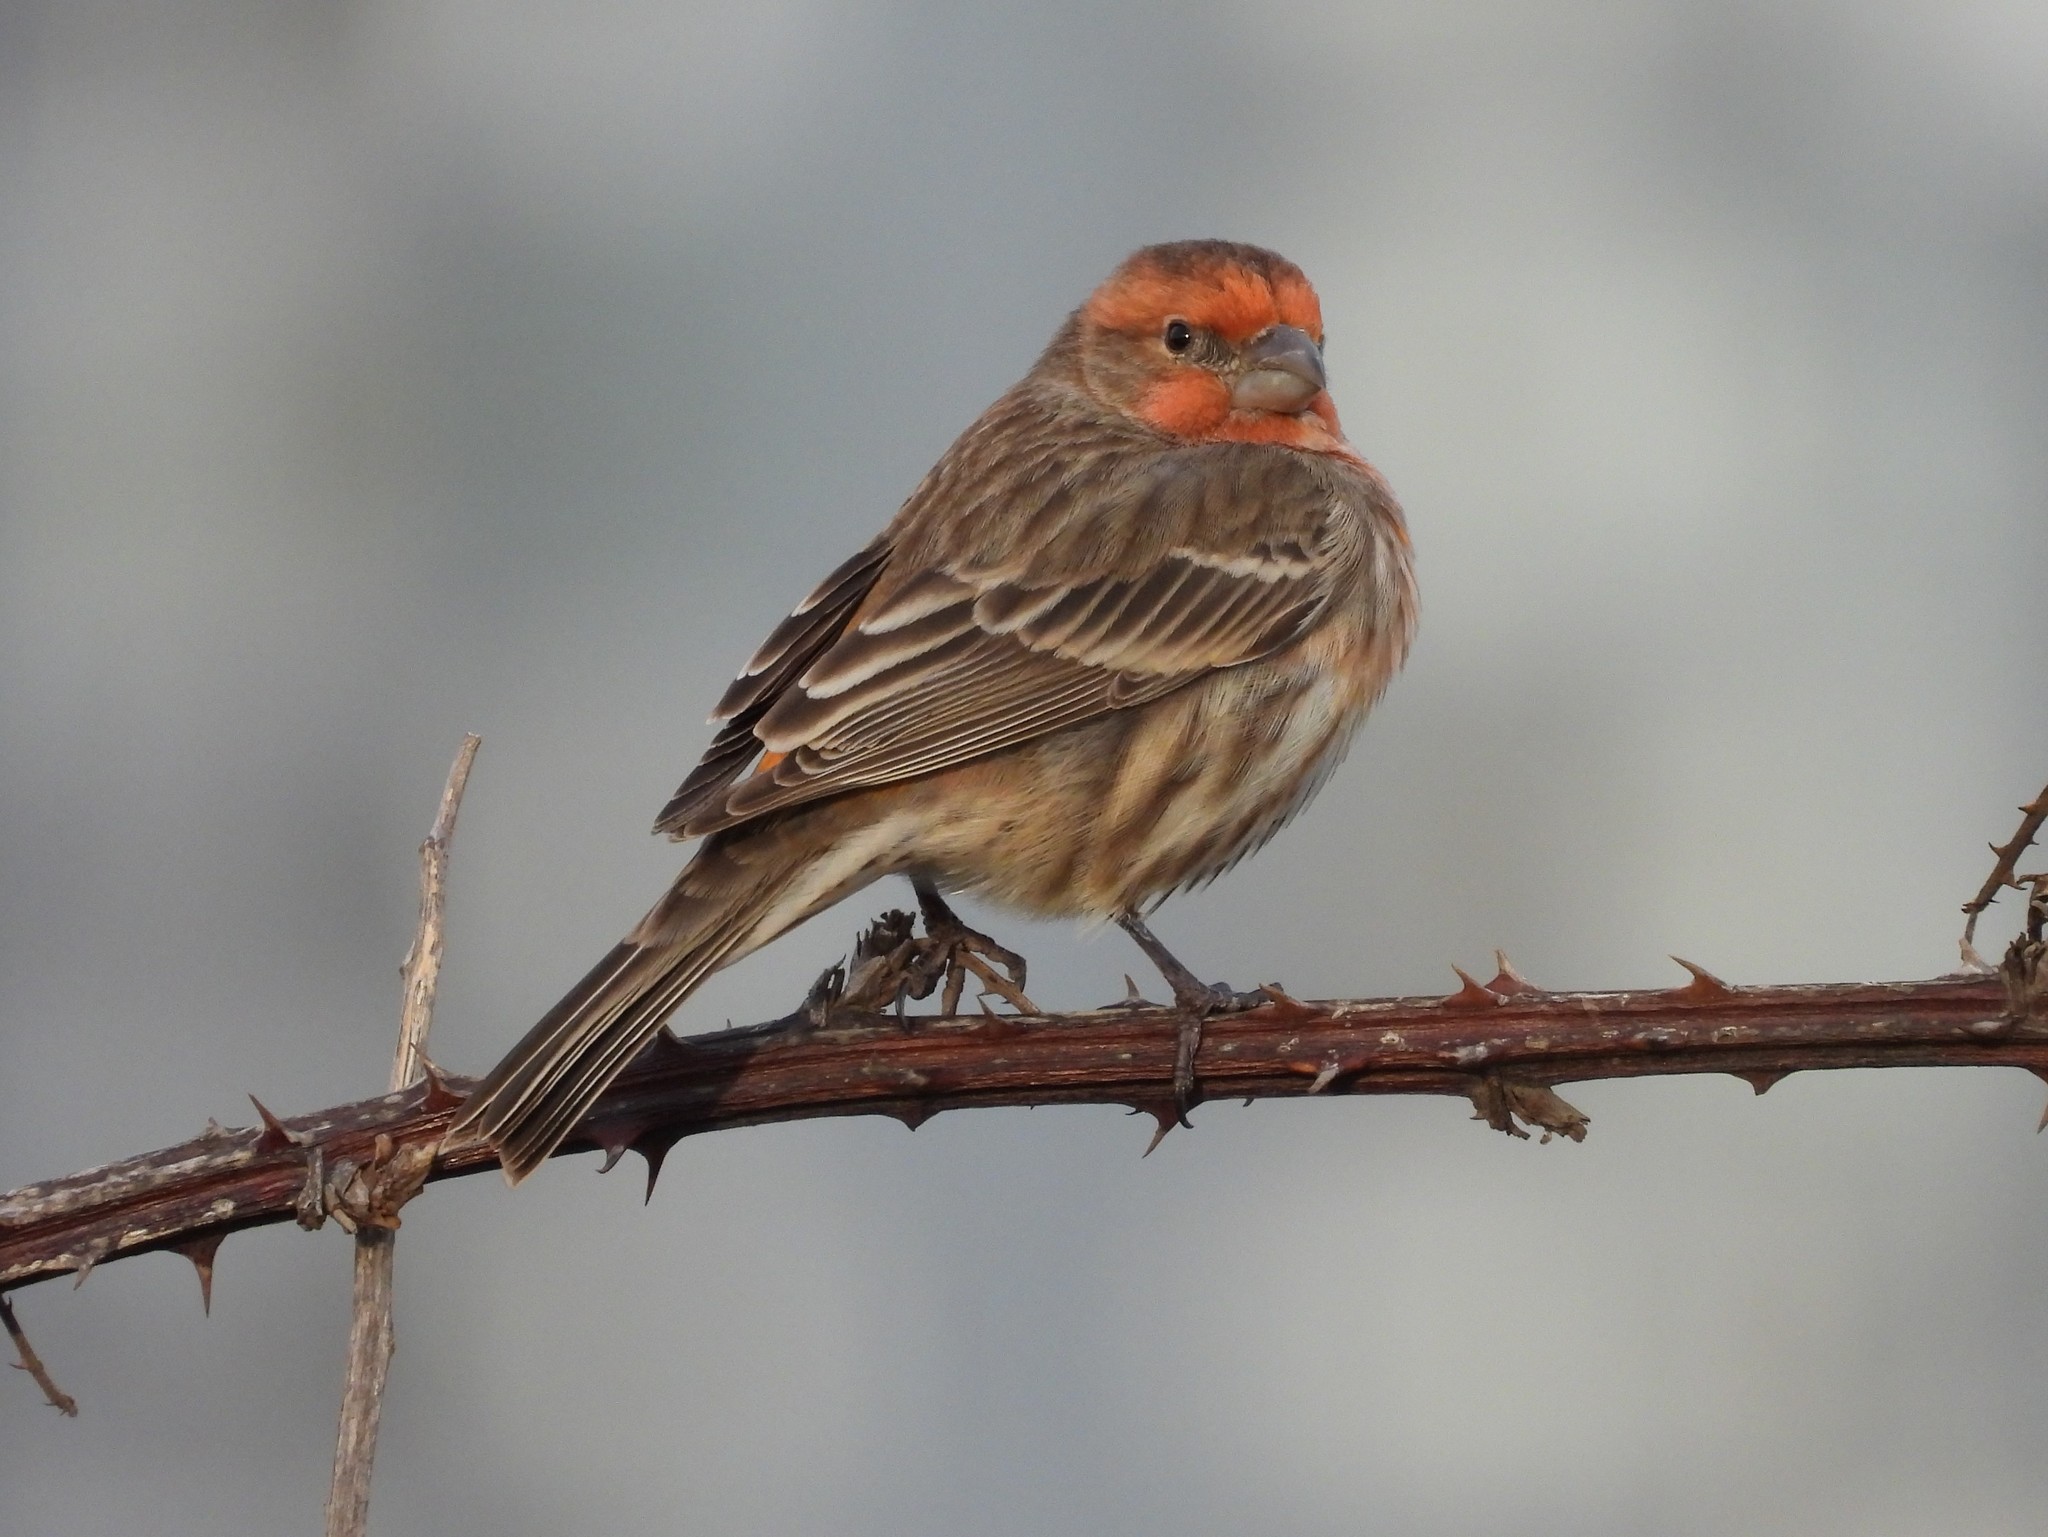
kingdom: Animalia
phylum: Chordata
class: Aves
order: Passeriformes
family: Fringillidae
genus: Haemorhous
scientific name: Haemorhous mexicanus
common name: House finch
